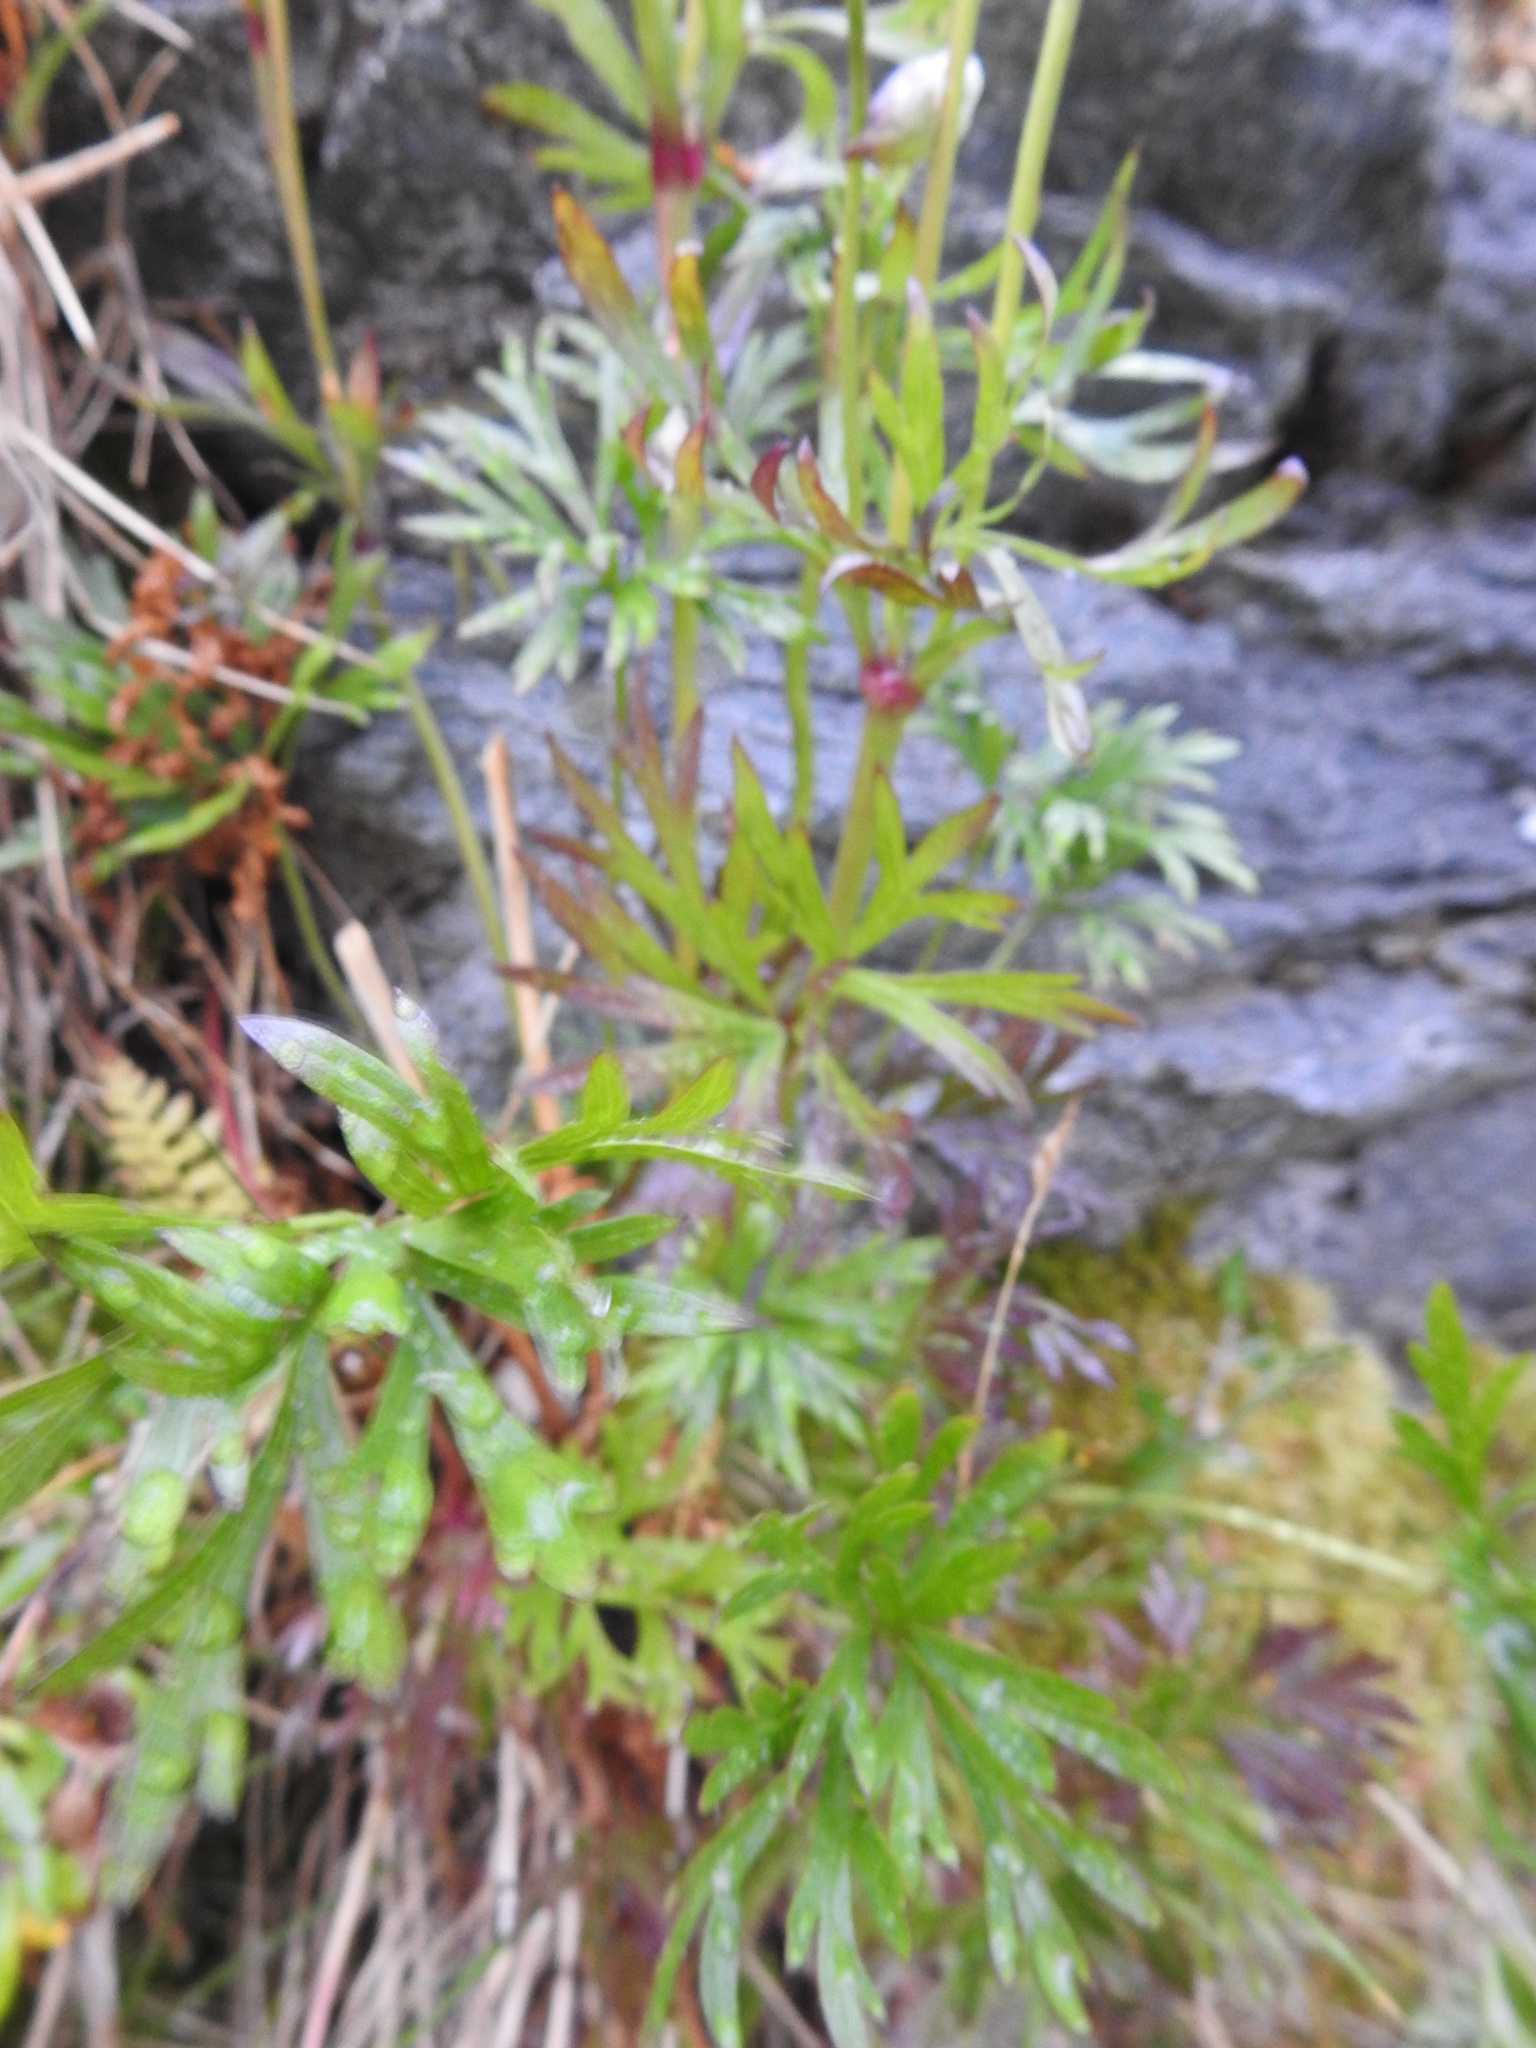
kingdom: Plantae
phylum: Tracheophyta
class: Magnoliopsida
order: Ranunculales
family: Ranunculaceae
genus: Anemone
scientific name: Anemone multifida
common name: Bird's-foot anemone
